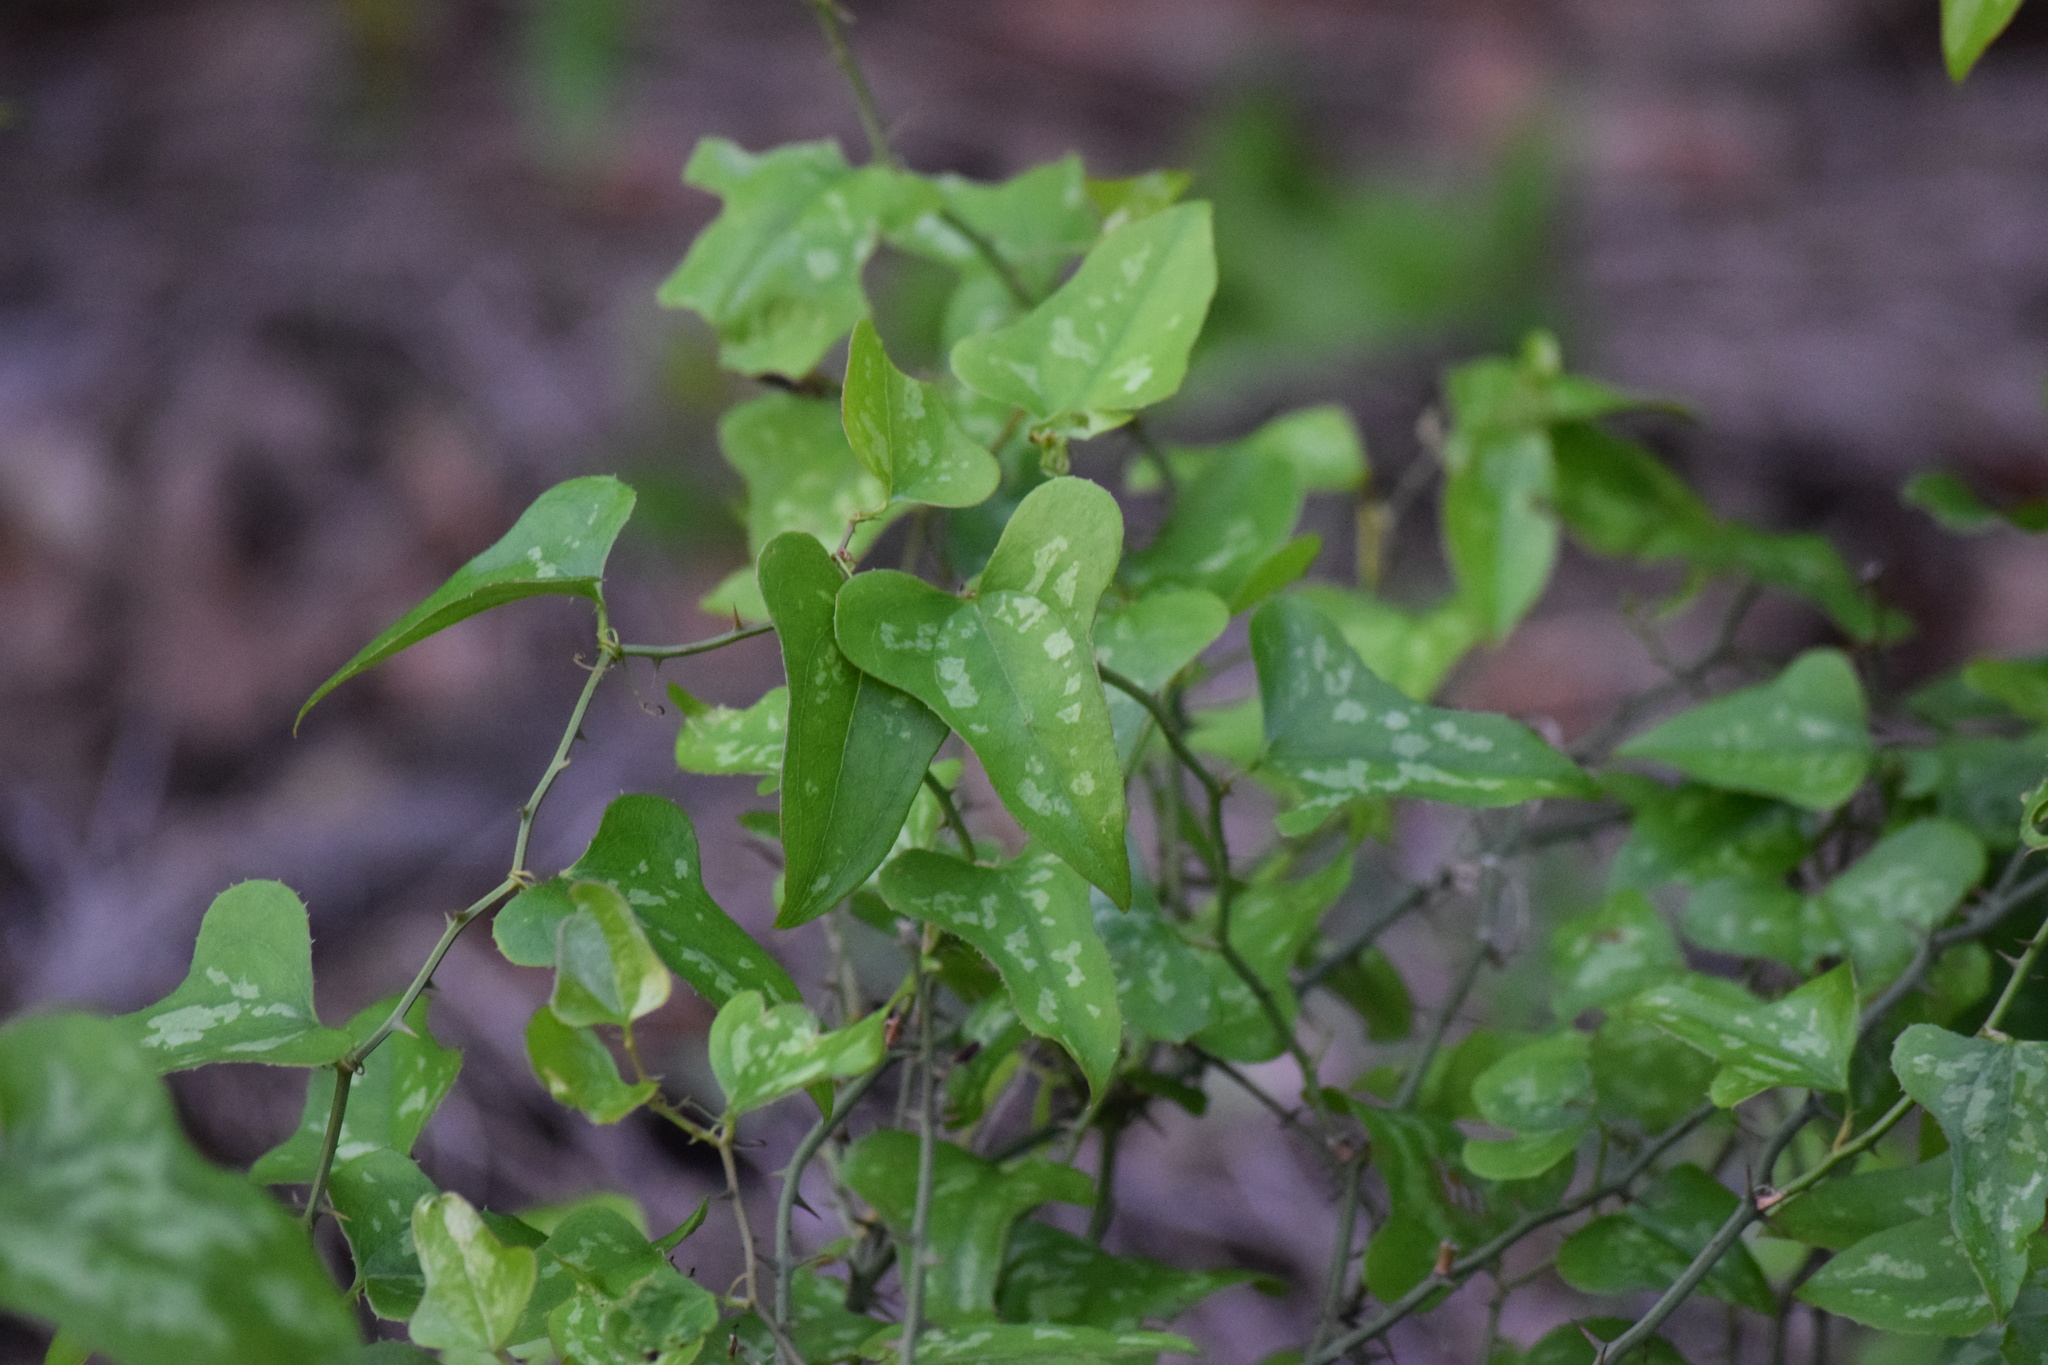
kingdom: Plantae
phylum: Tracheophyta
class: Liliopsida
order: Liliales
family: Smilacaceae
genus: Smilax
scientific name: Smilax bona-nox
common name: Catbrier
